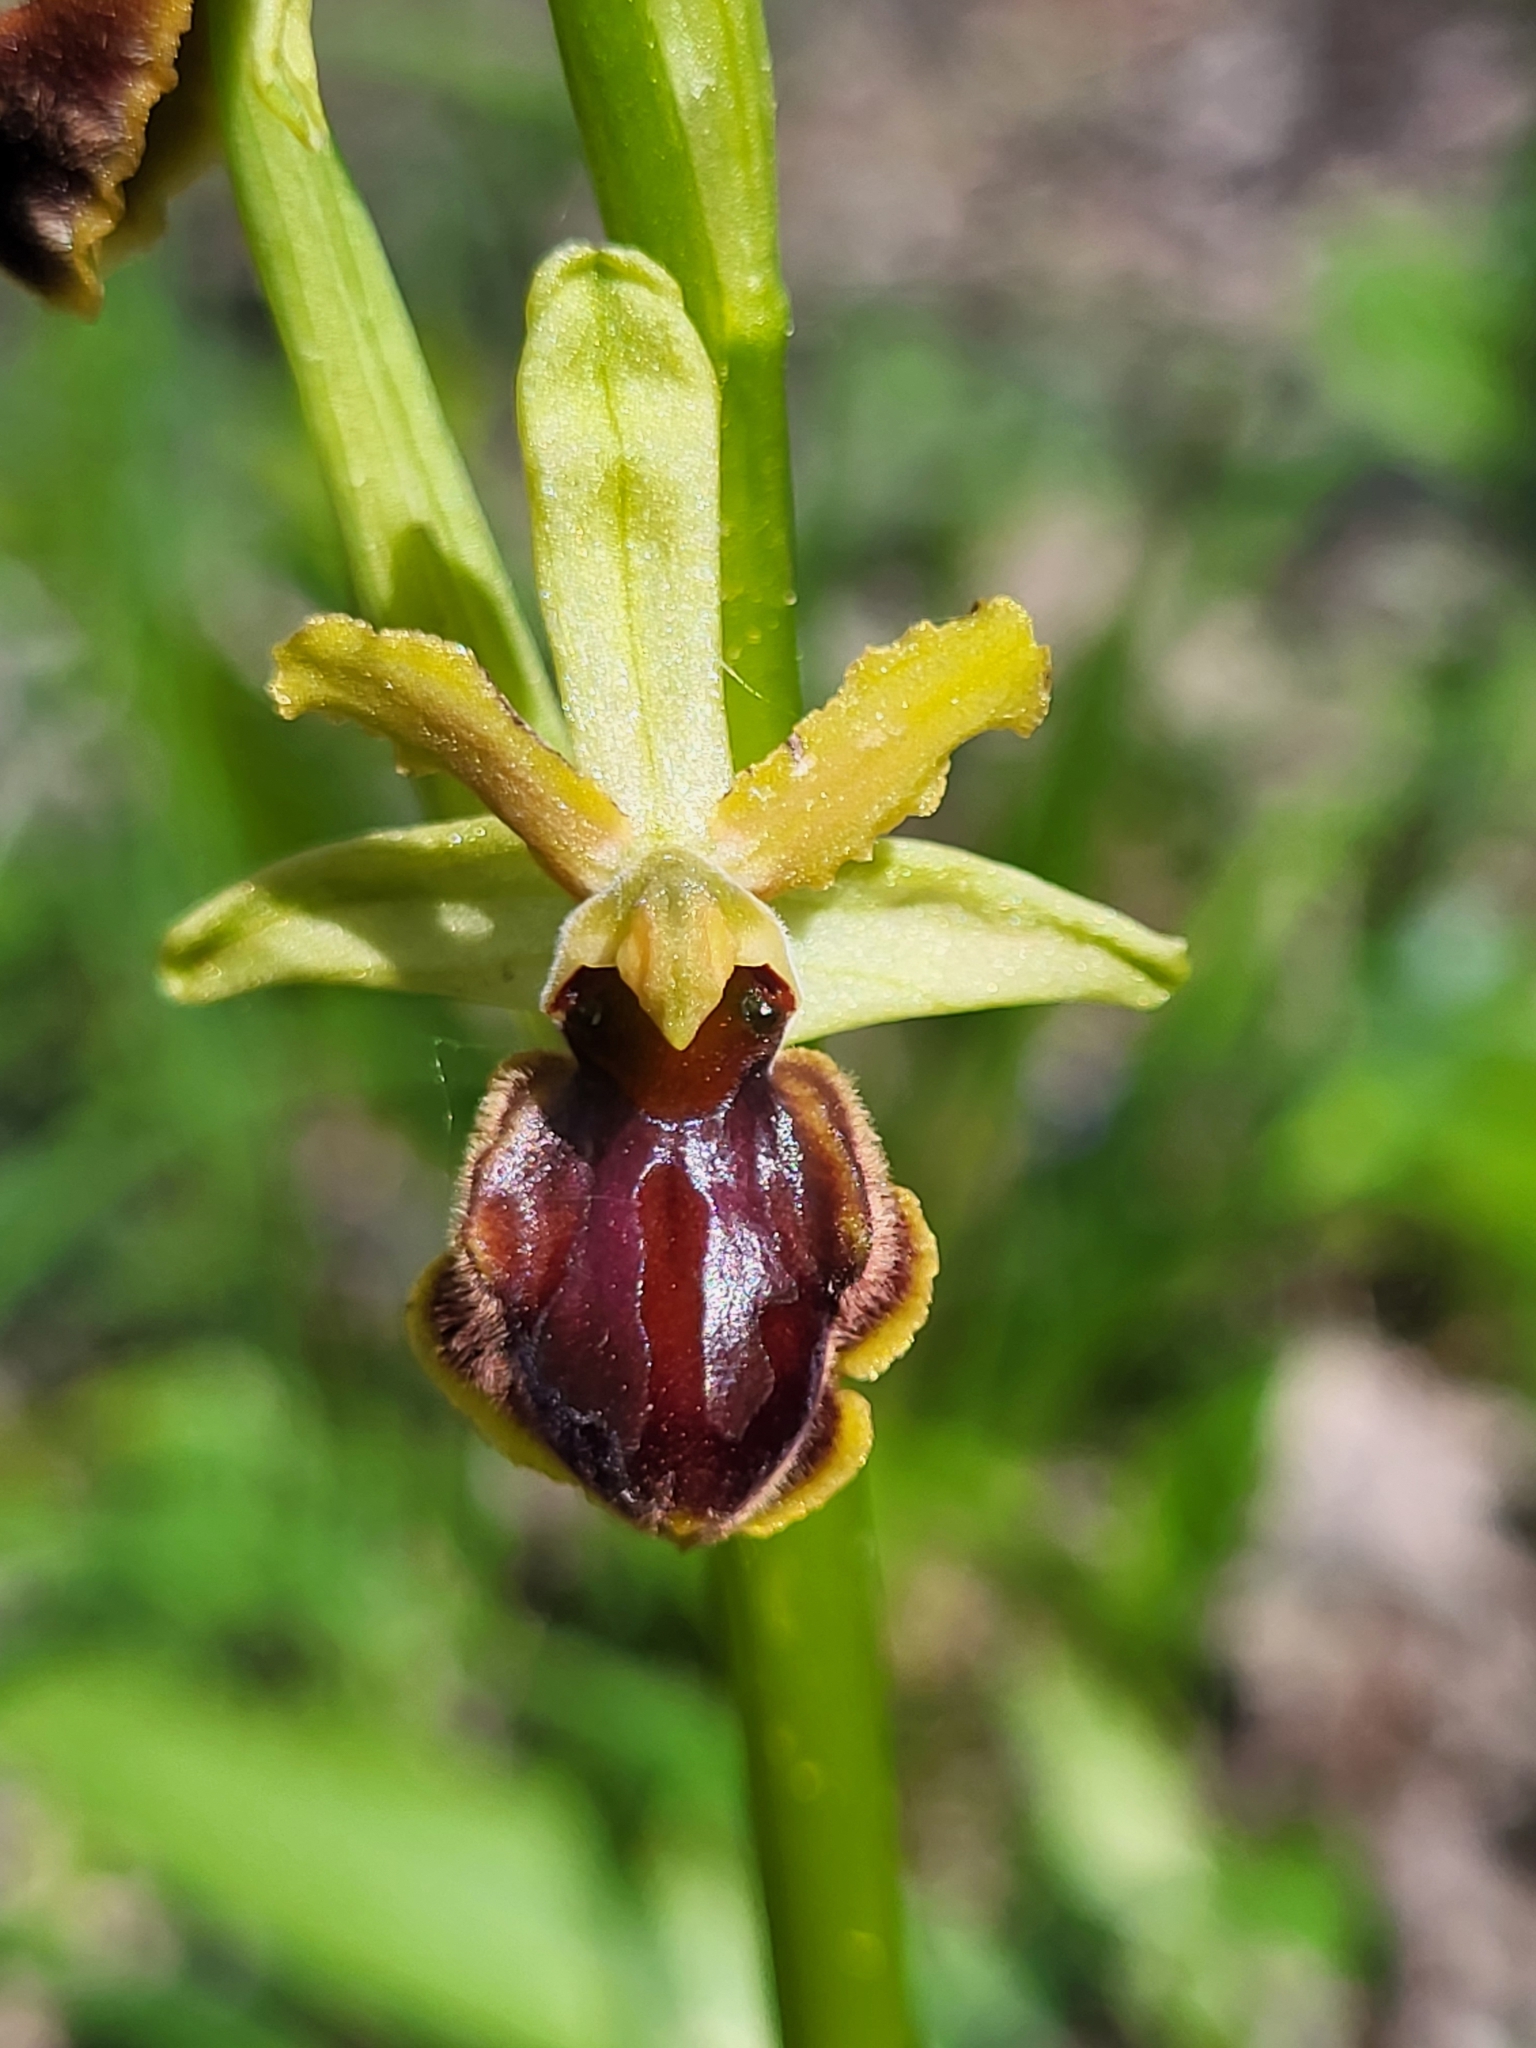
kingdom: Plantae
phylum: Tracheophyta
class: Liliopsida
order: Asparagales
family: Orchidaceae
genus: Ophrys
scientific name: Ophrys sphegodes
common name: Early spider-orchid
